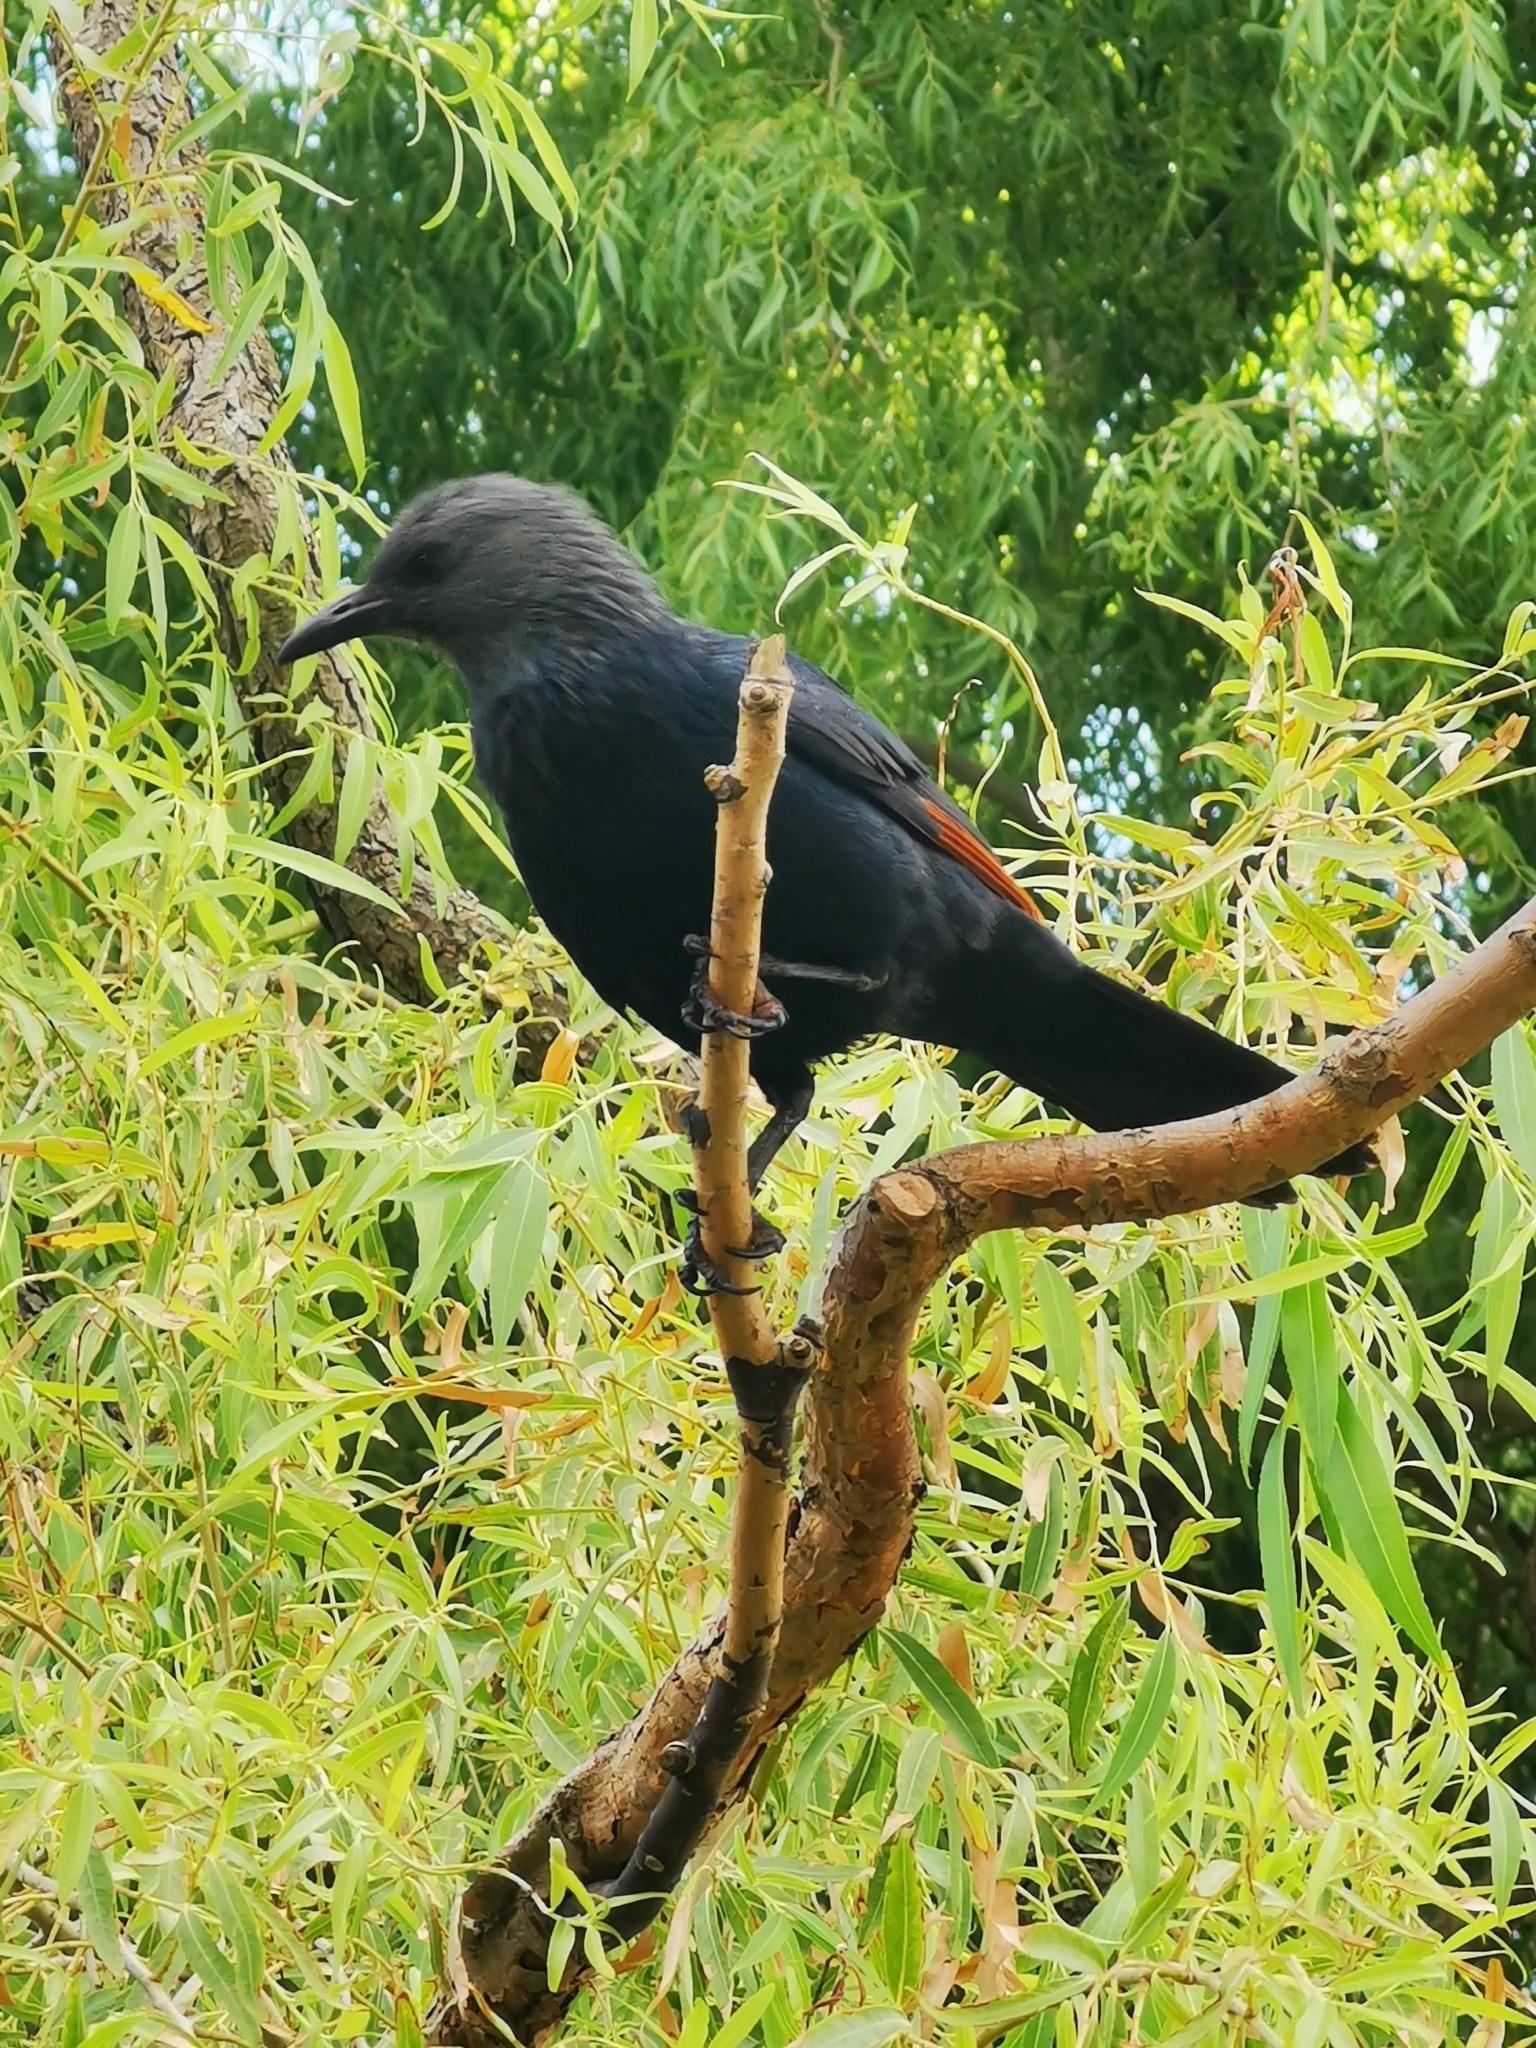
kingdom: Animalia
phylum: Chordata
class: Aves
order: Passeriformes
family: Sturnidae
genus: Onychognathus
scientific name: Onychognathus morio
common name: Red-winged starling
